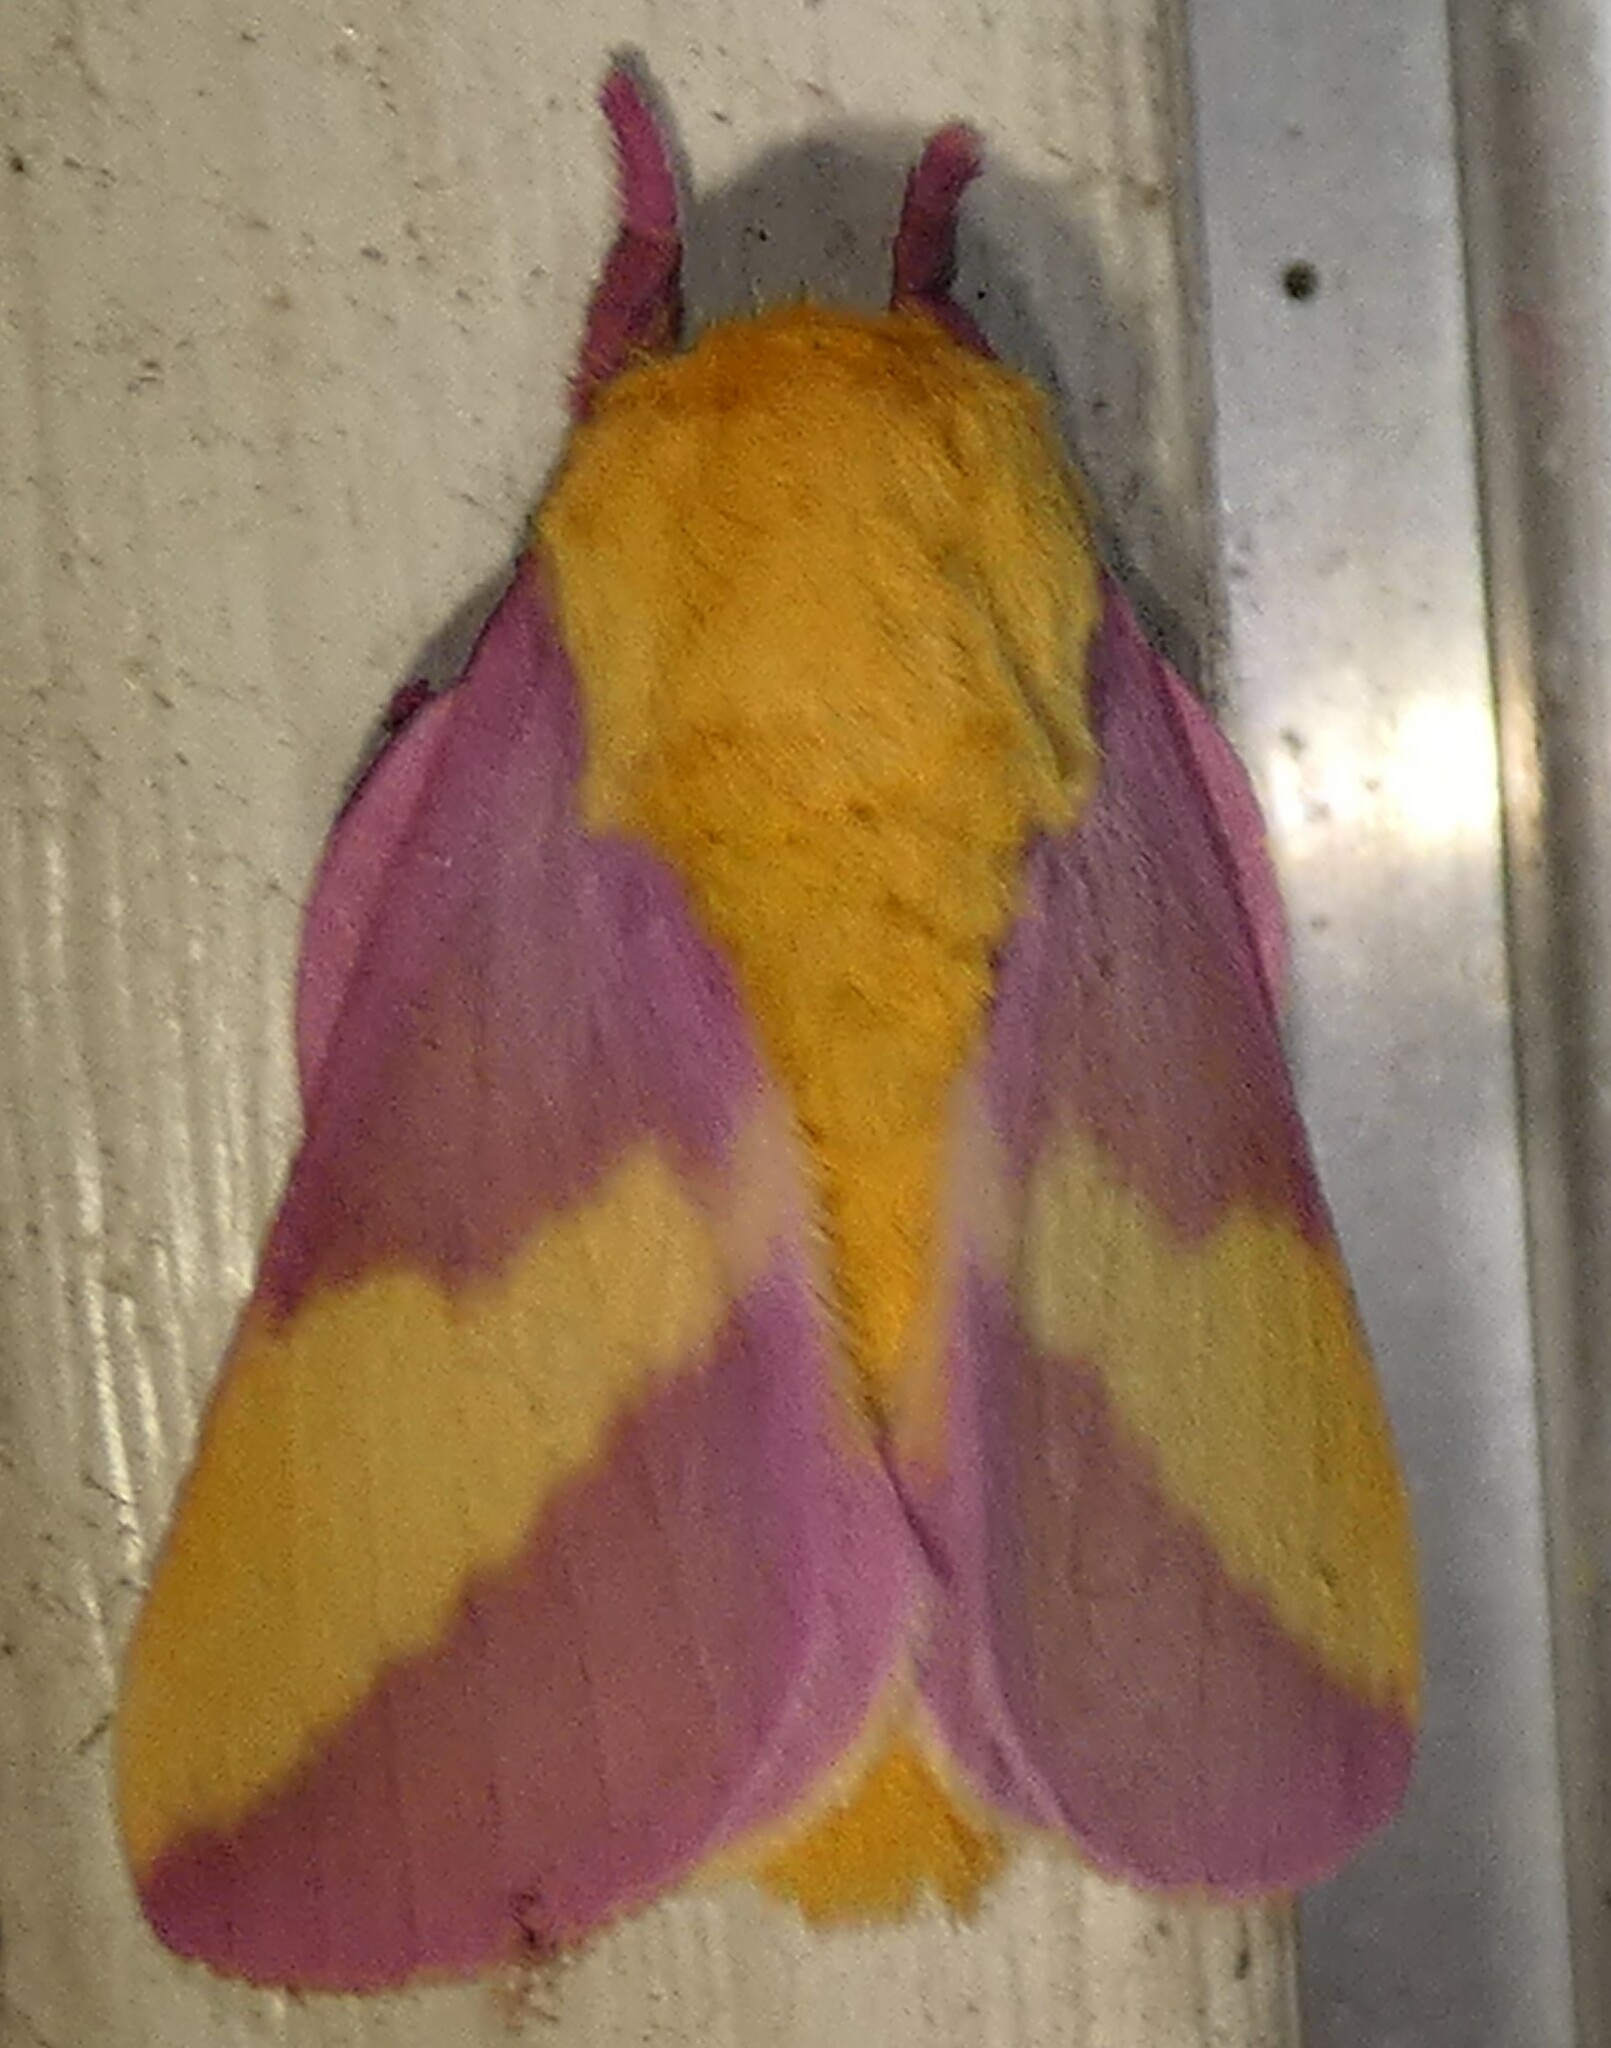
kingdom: Animalia
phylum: Arthropoda
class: Insecta
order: Lepidoptera
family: Saturniidae
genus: Dryocampa
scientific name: Dryocampa rubicunda
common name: Rosy maple moth
